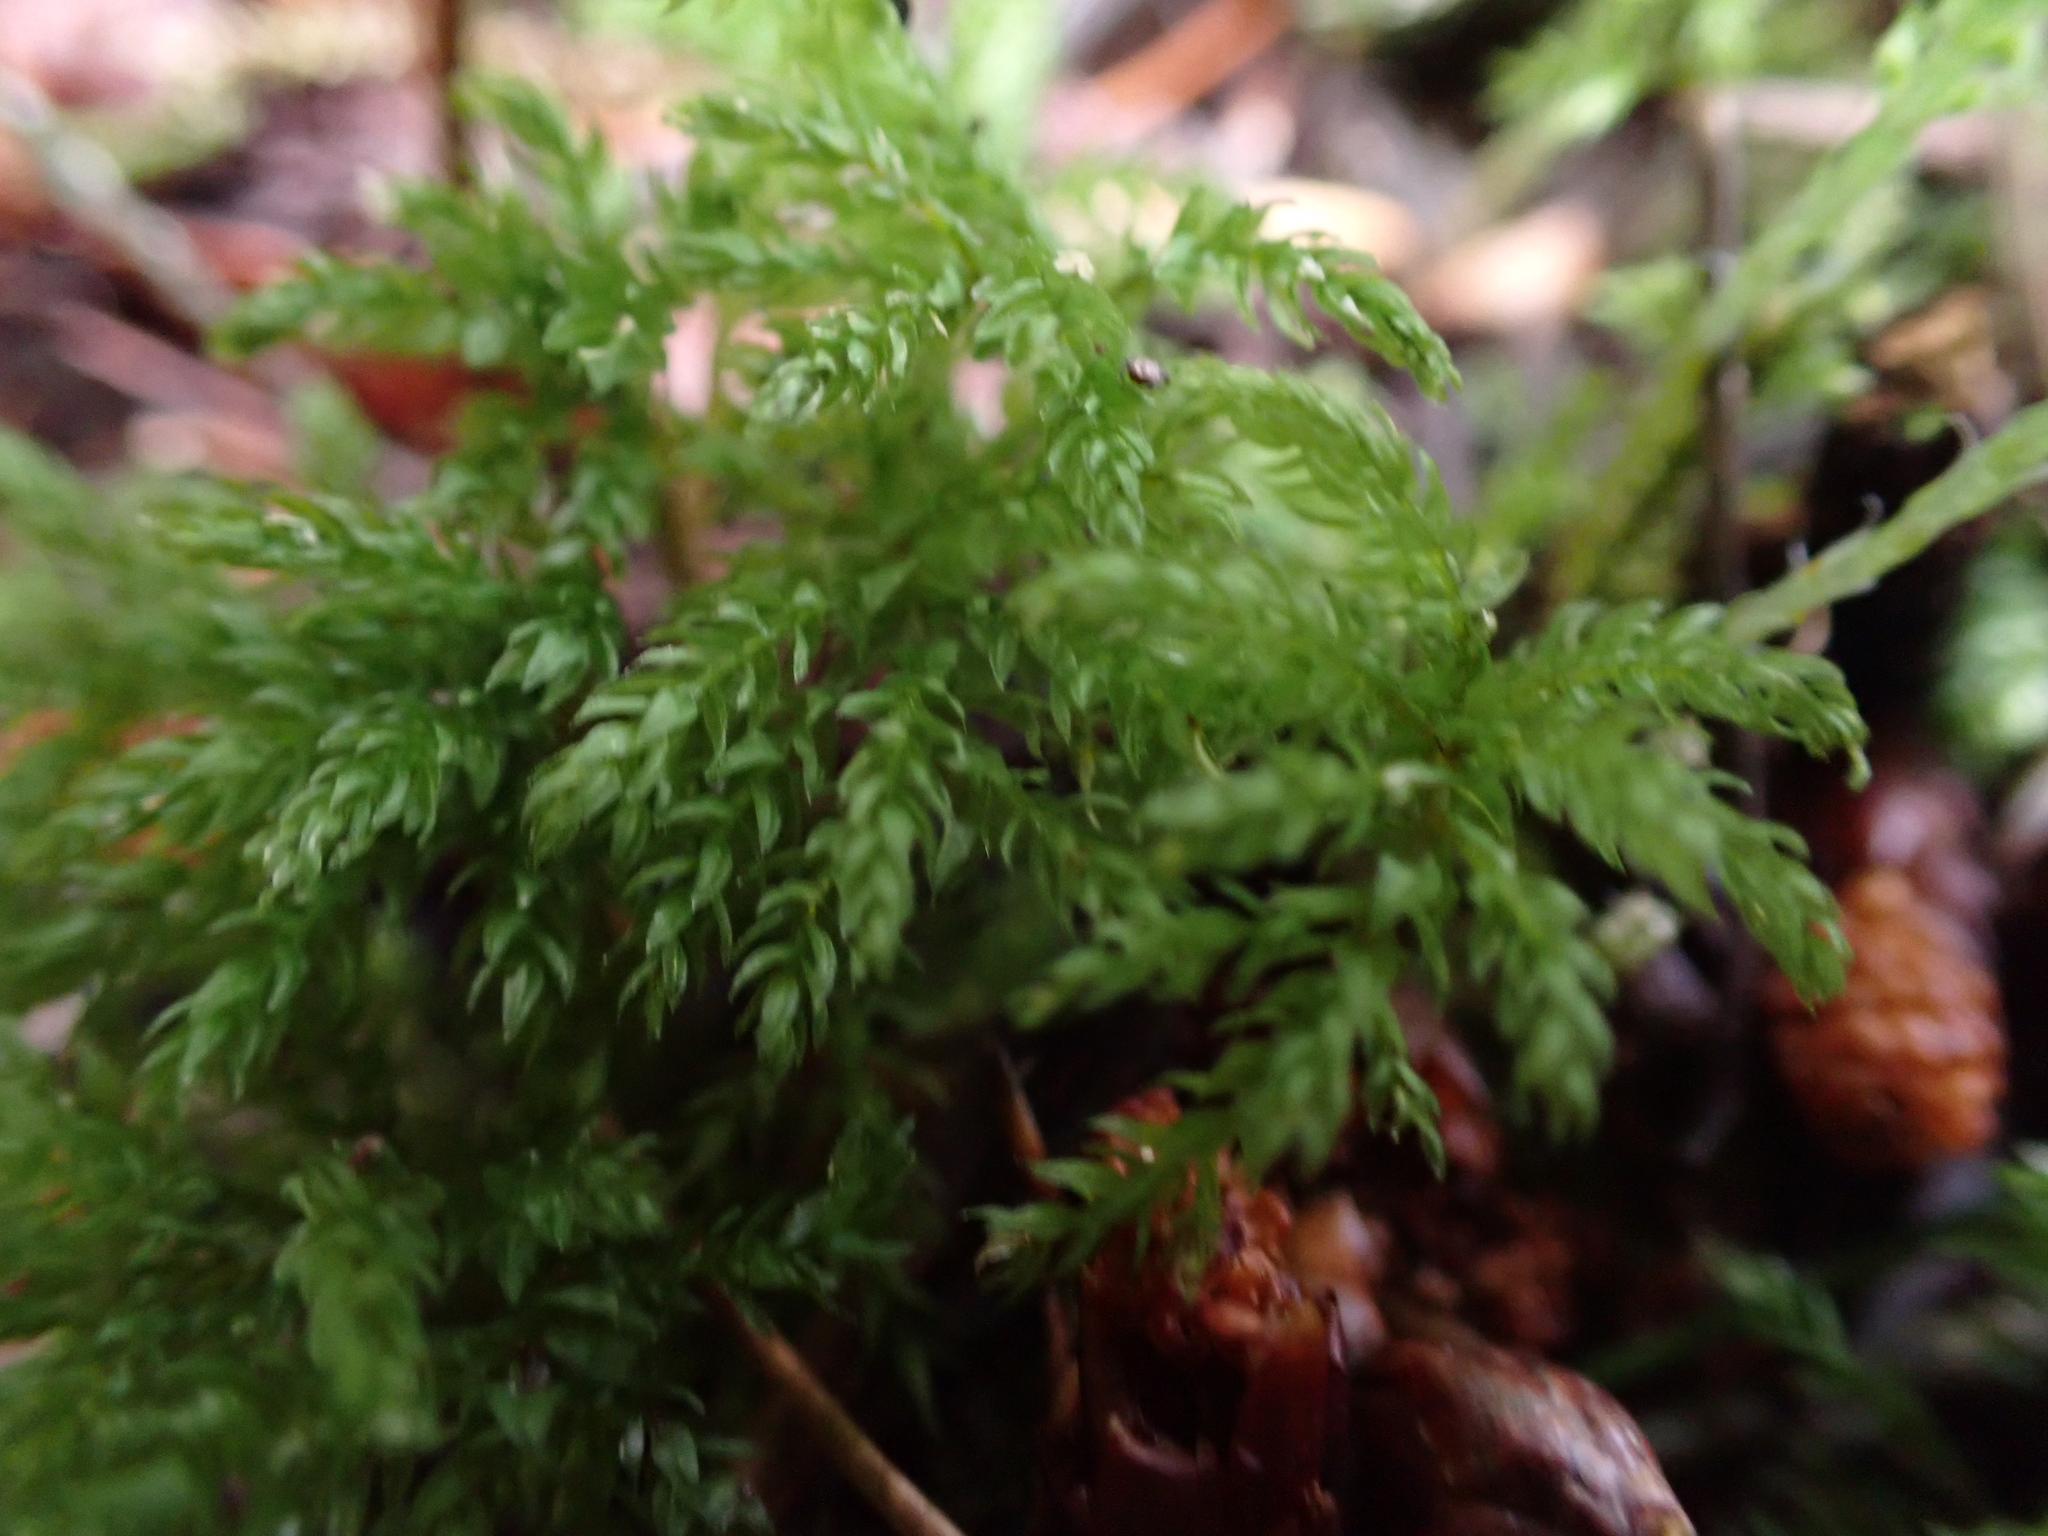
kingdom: Plantae
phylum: Bryophyta
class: Bryopsida
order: Bryales
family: Mniaceae
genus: Leucolepis
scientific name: Leucolepis acanthoneura
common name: Leucolepis umbrella moss
